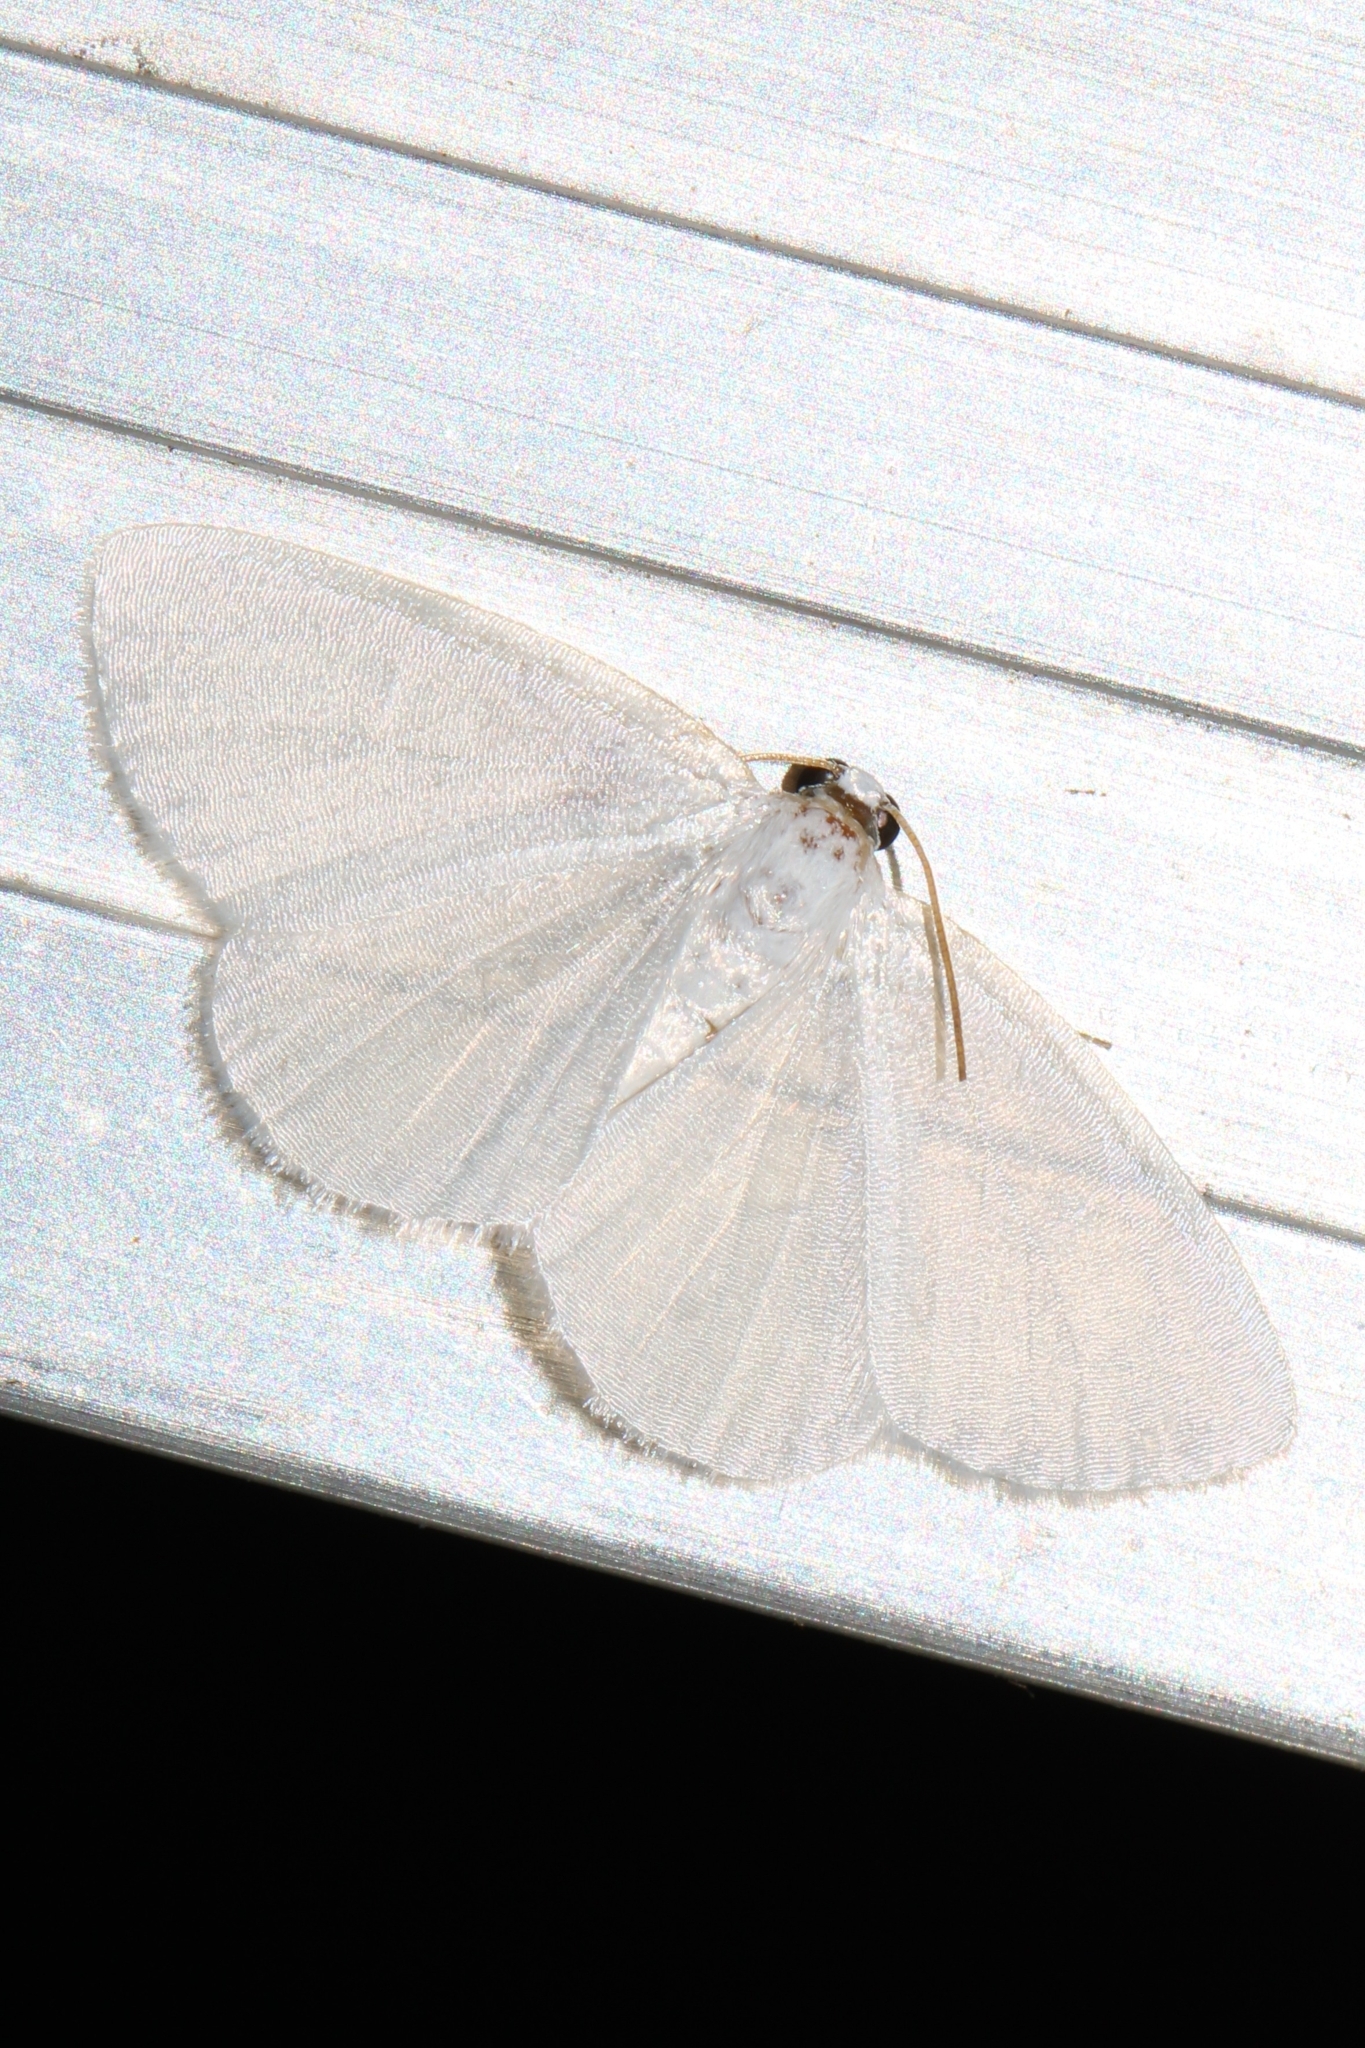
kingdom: Animalia
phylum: Arthropoda
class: Insecta
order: Lepidoptera
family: Geometridae
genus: Lomographa
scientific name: Lomographa vestaliata
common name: White spring moth
